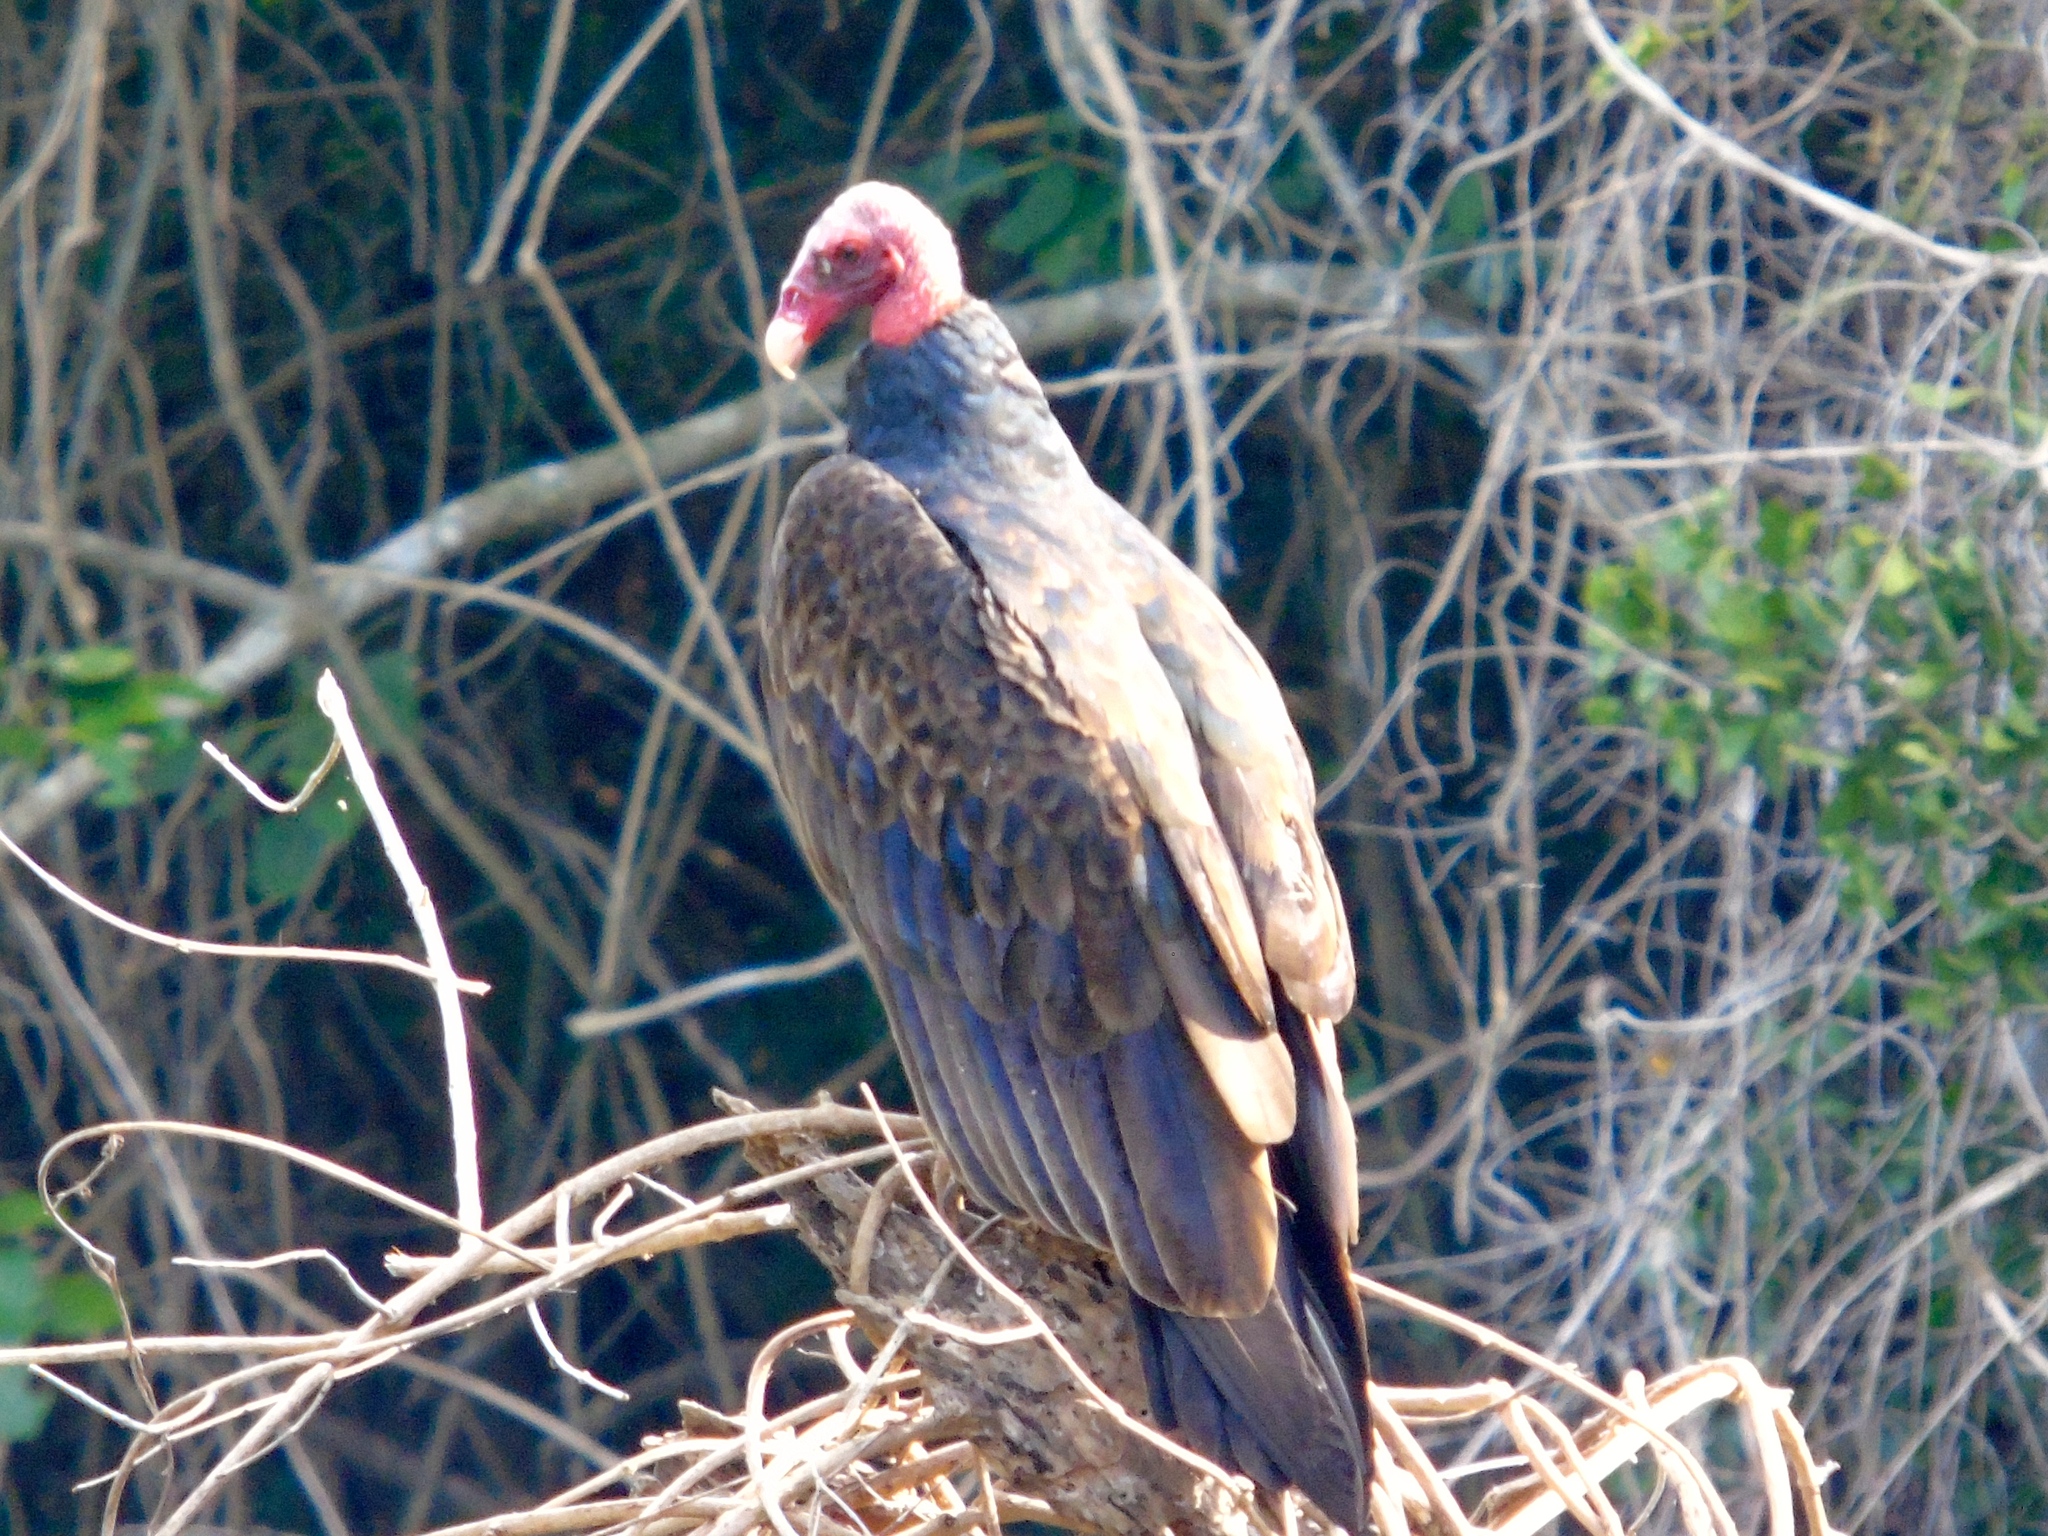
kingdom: Animalia
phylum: Chordata
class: Aves
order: Accipitriformes
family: Cathartidae
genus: Cathartes
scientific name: Cathartes aura
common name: Turkey vulture
